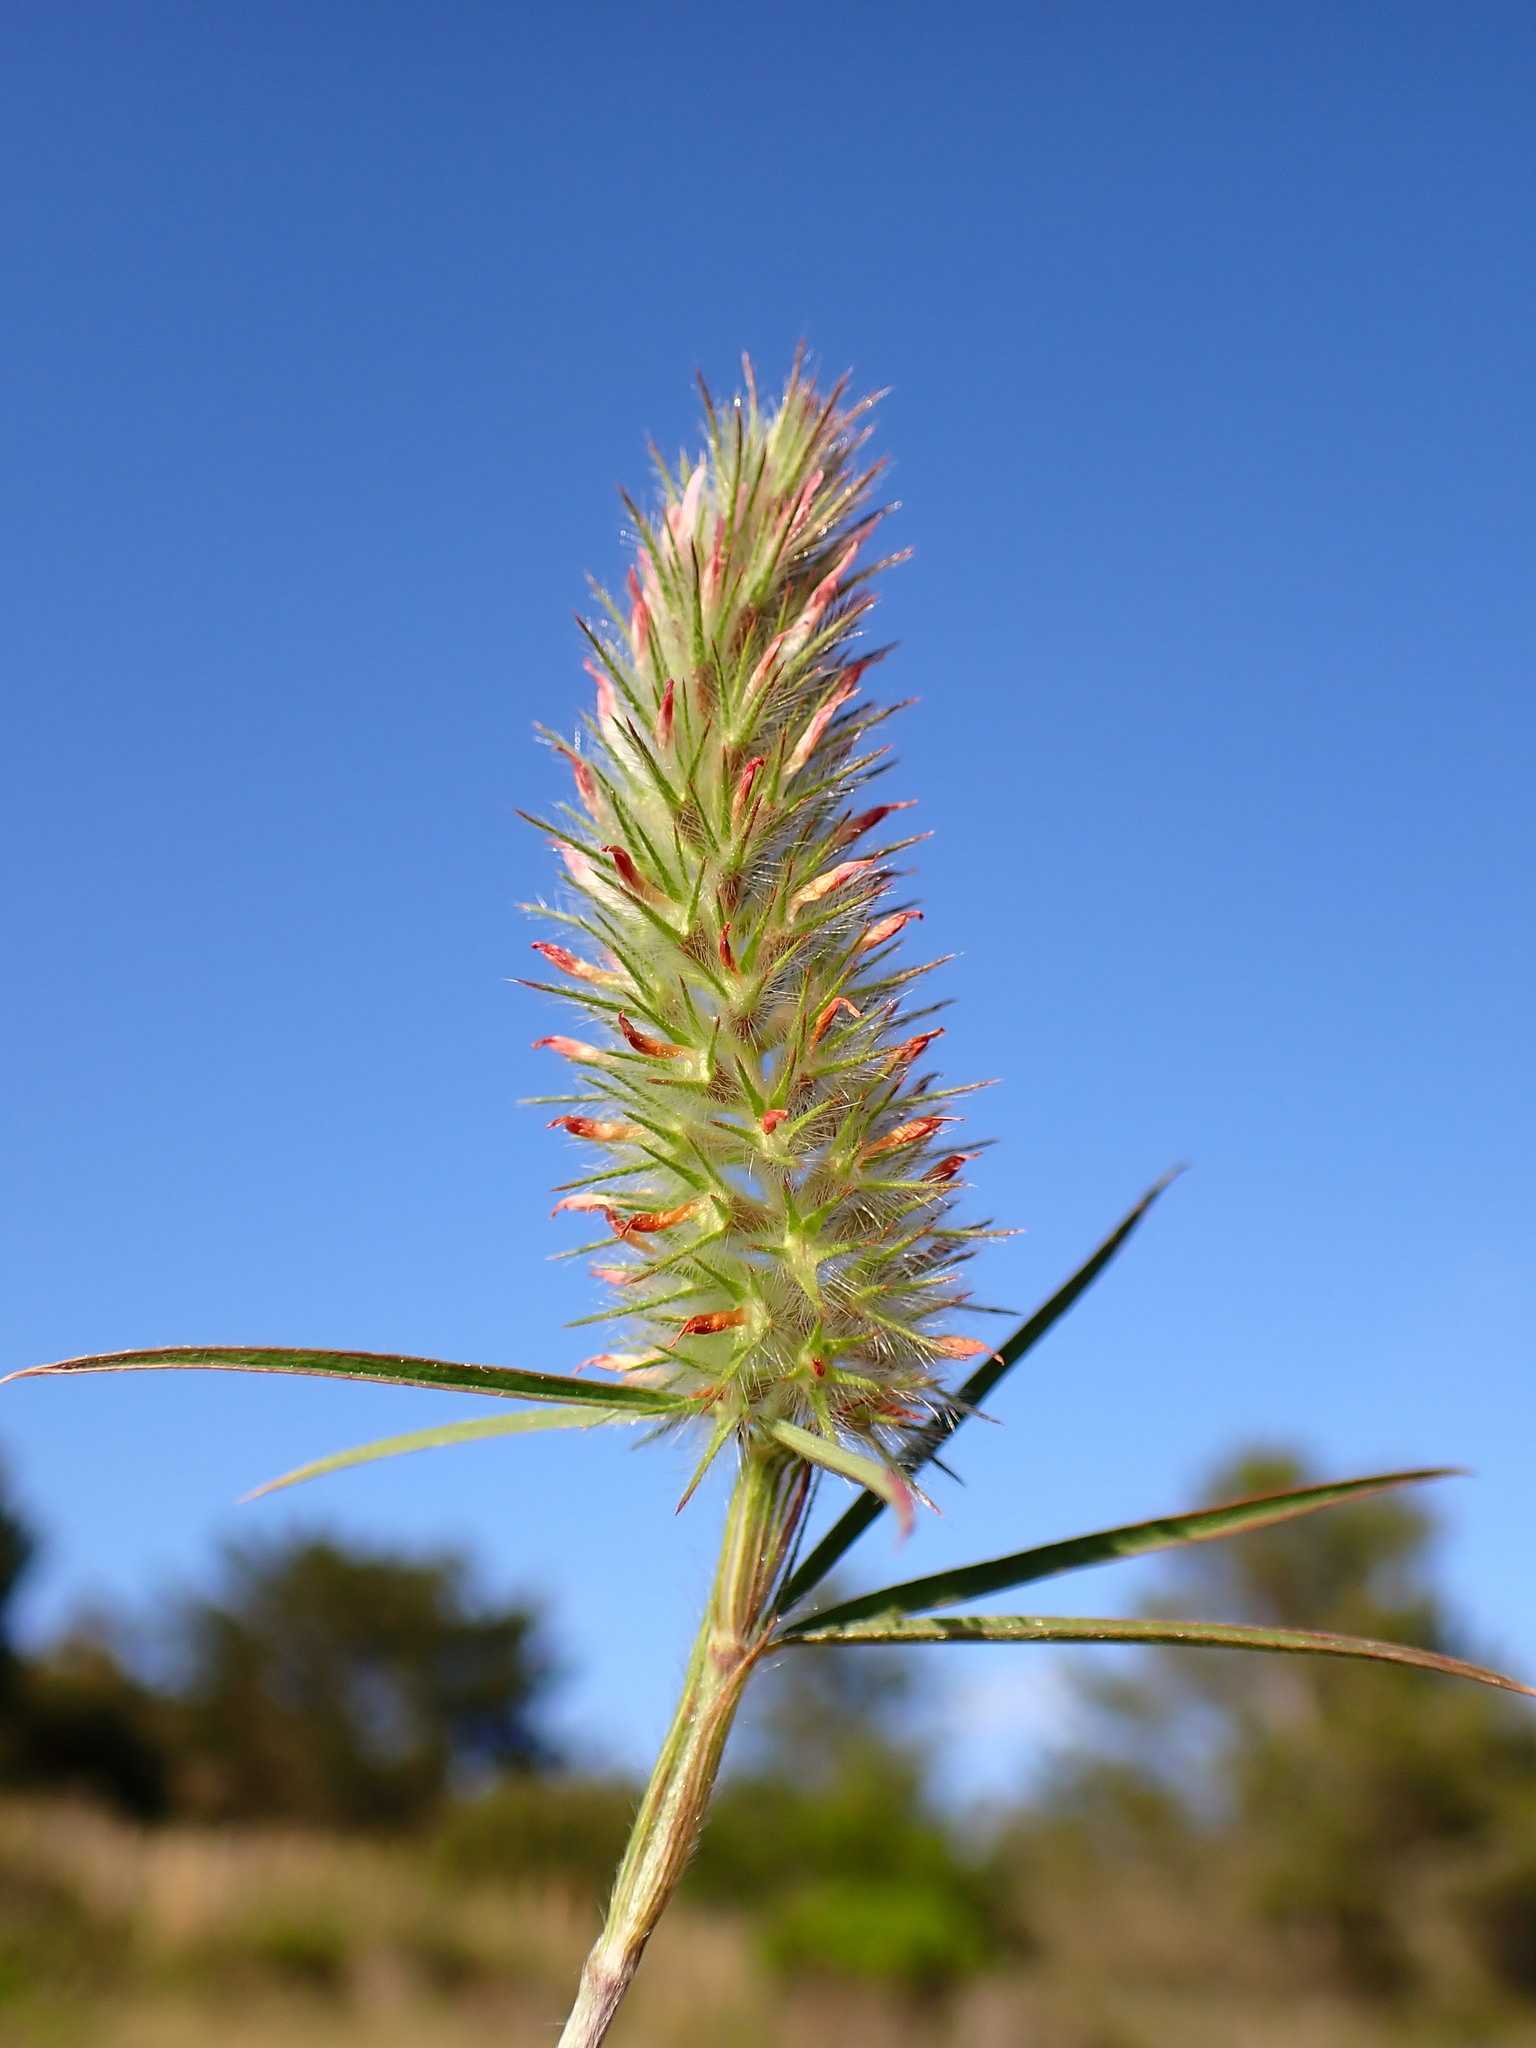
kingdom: Plantae
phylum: Tracheophyta
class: Magnoliopsida
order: Fabales
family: Fabaceae
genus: Trifolium
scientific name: Trifolium angustifolium
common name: Narrow clover
